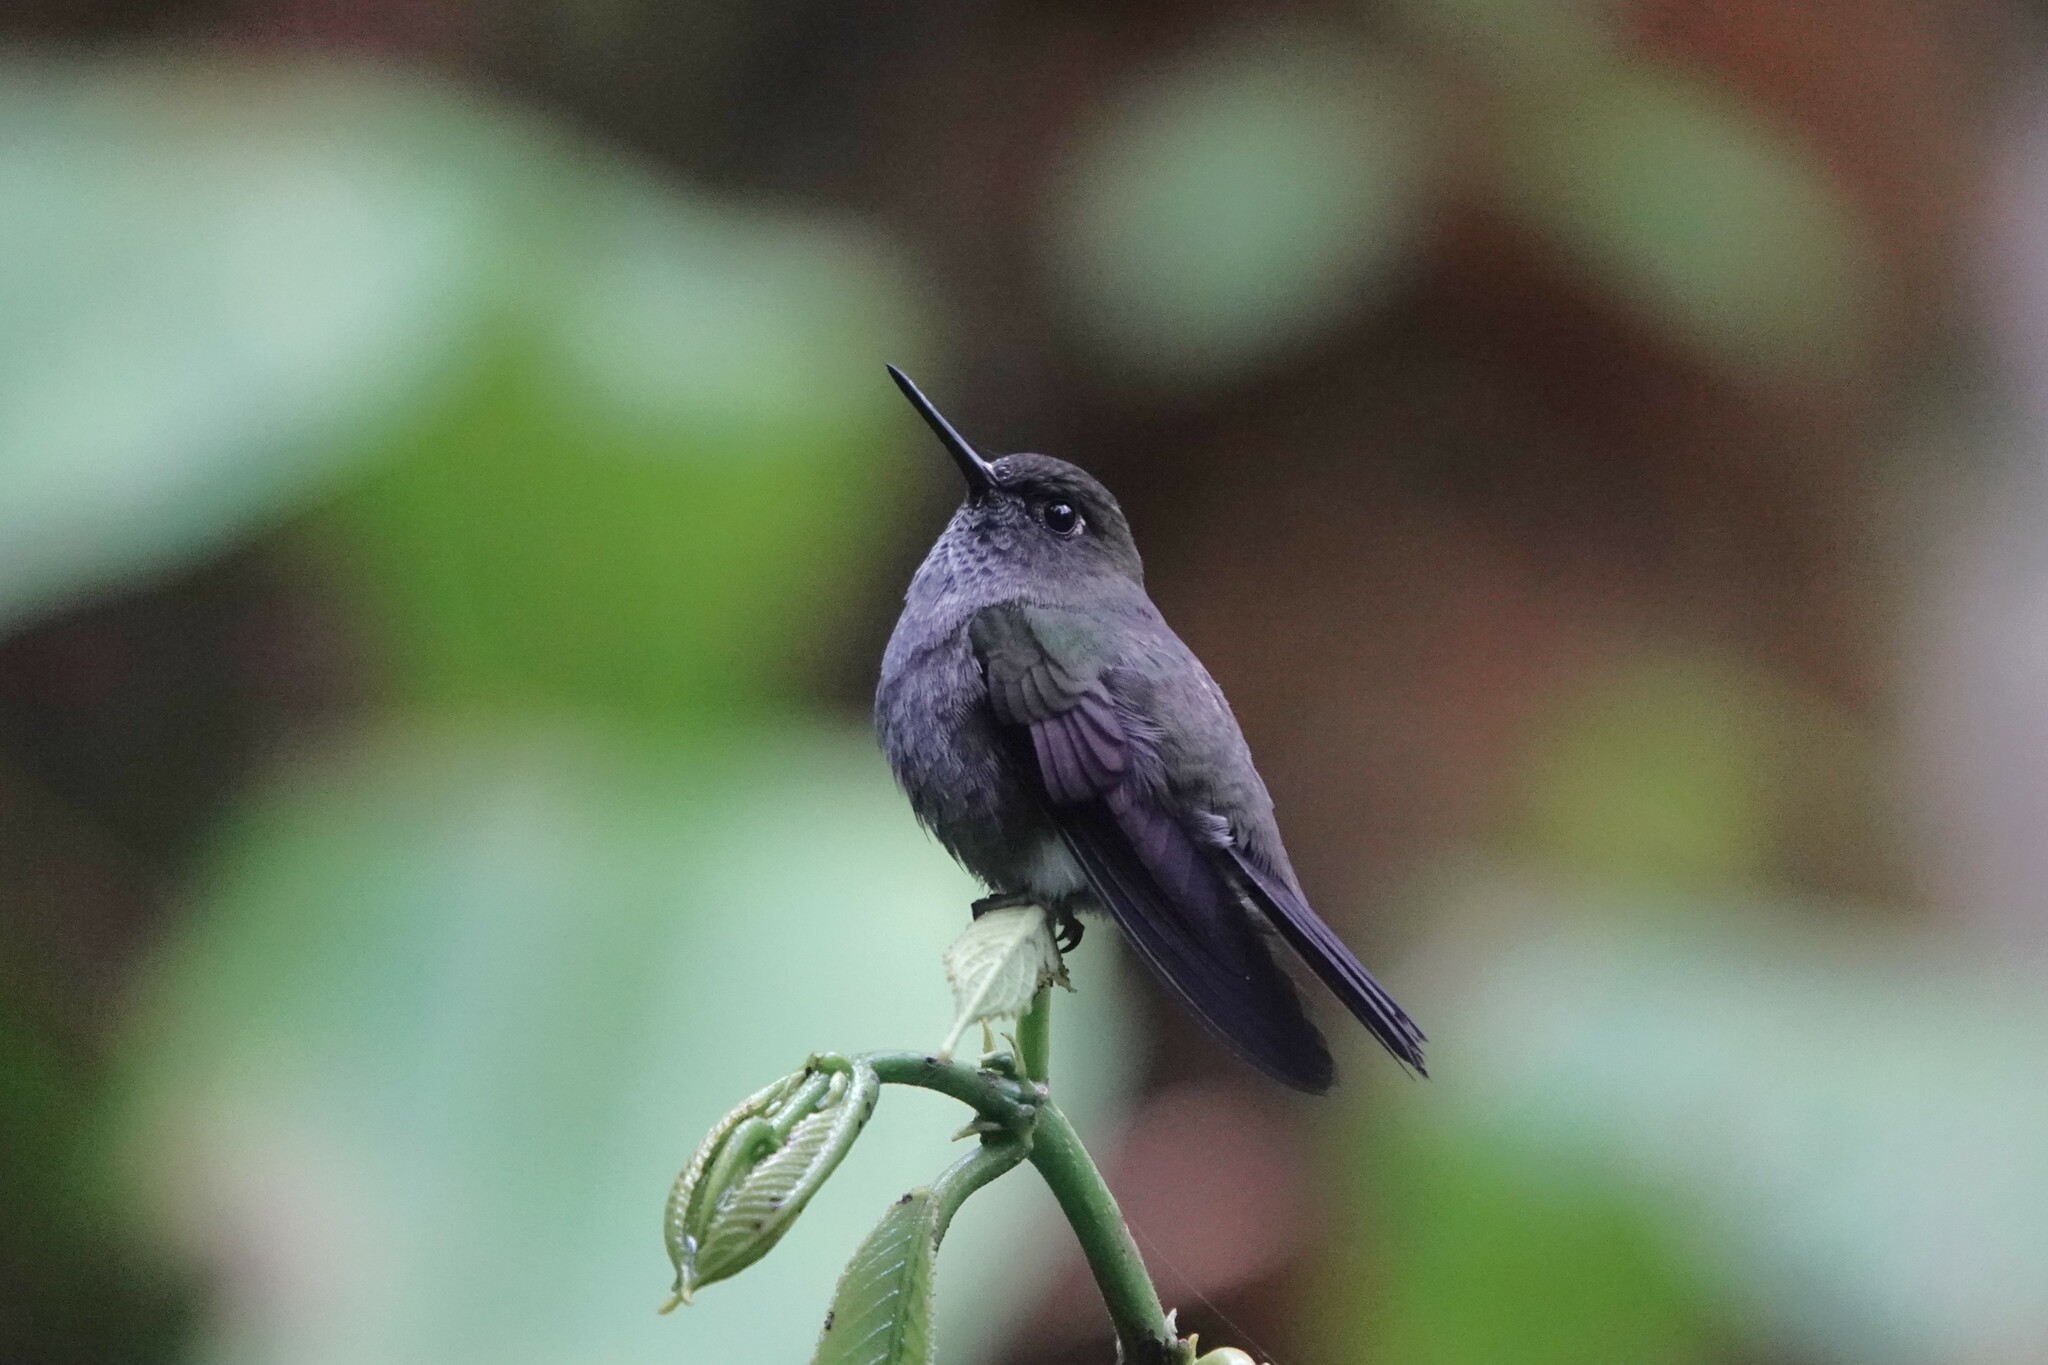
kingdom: Animalia
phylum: Chordata
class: Aves
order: Apodiformes
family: Trochilidae
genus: Haplophaedia
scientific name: Haplophaedia lugens
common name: Hoary puffleg
